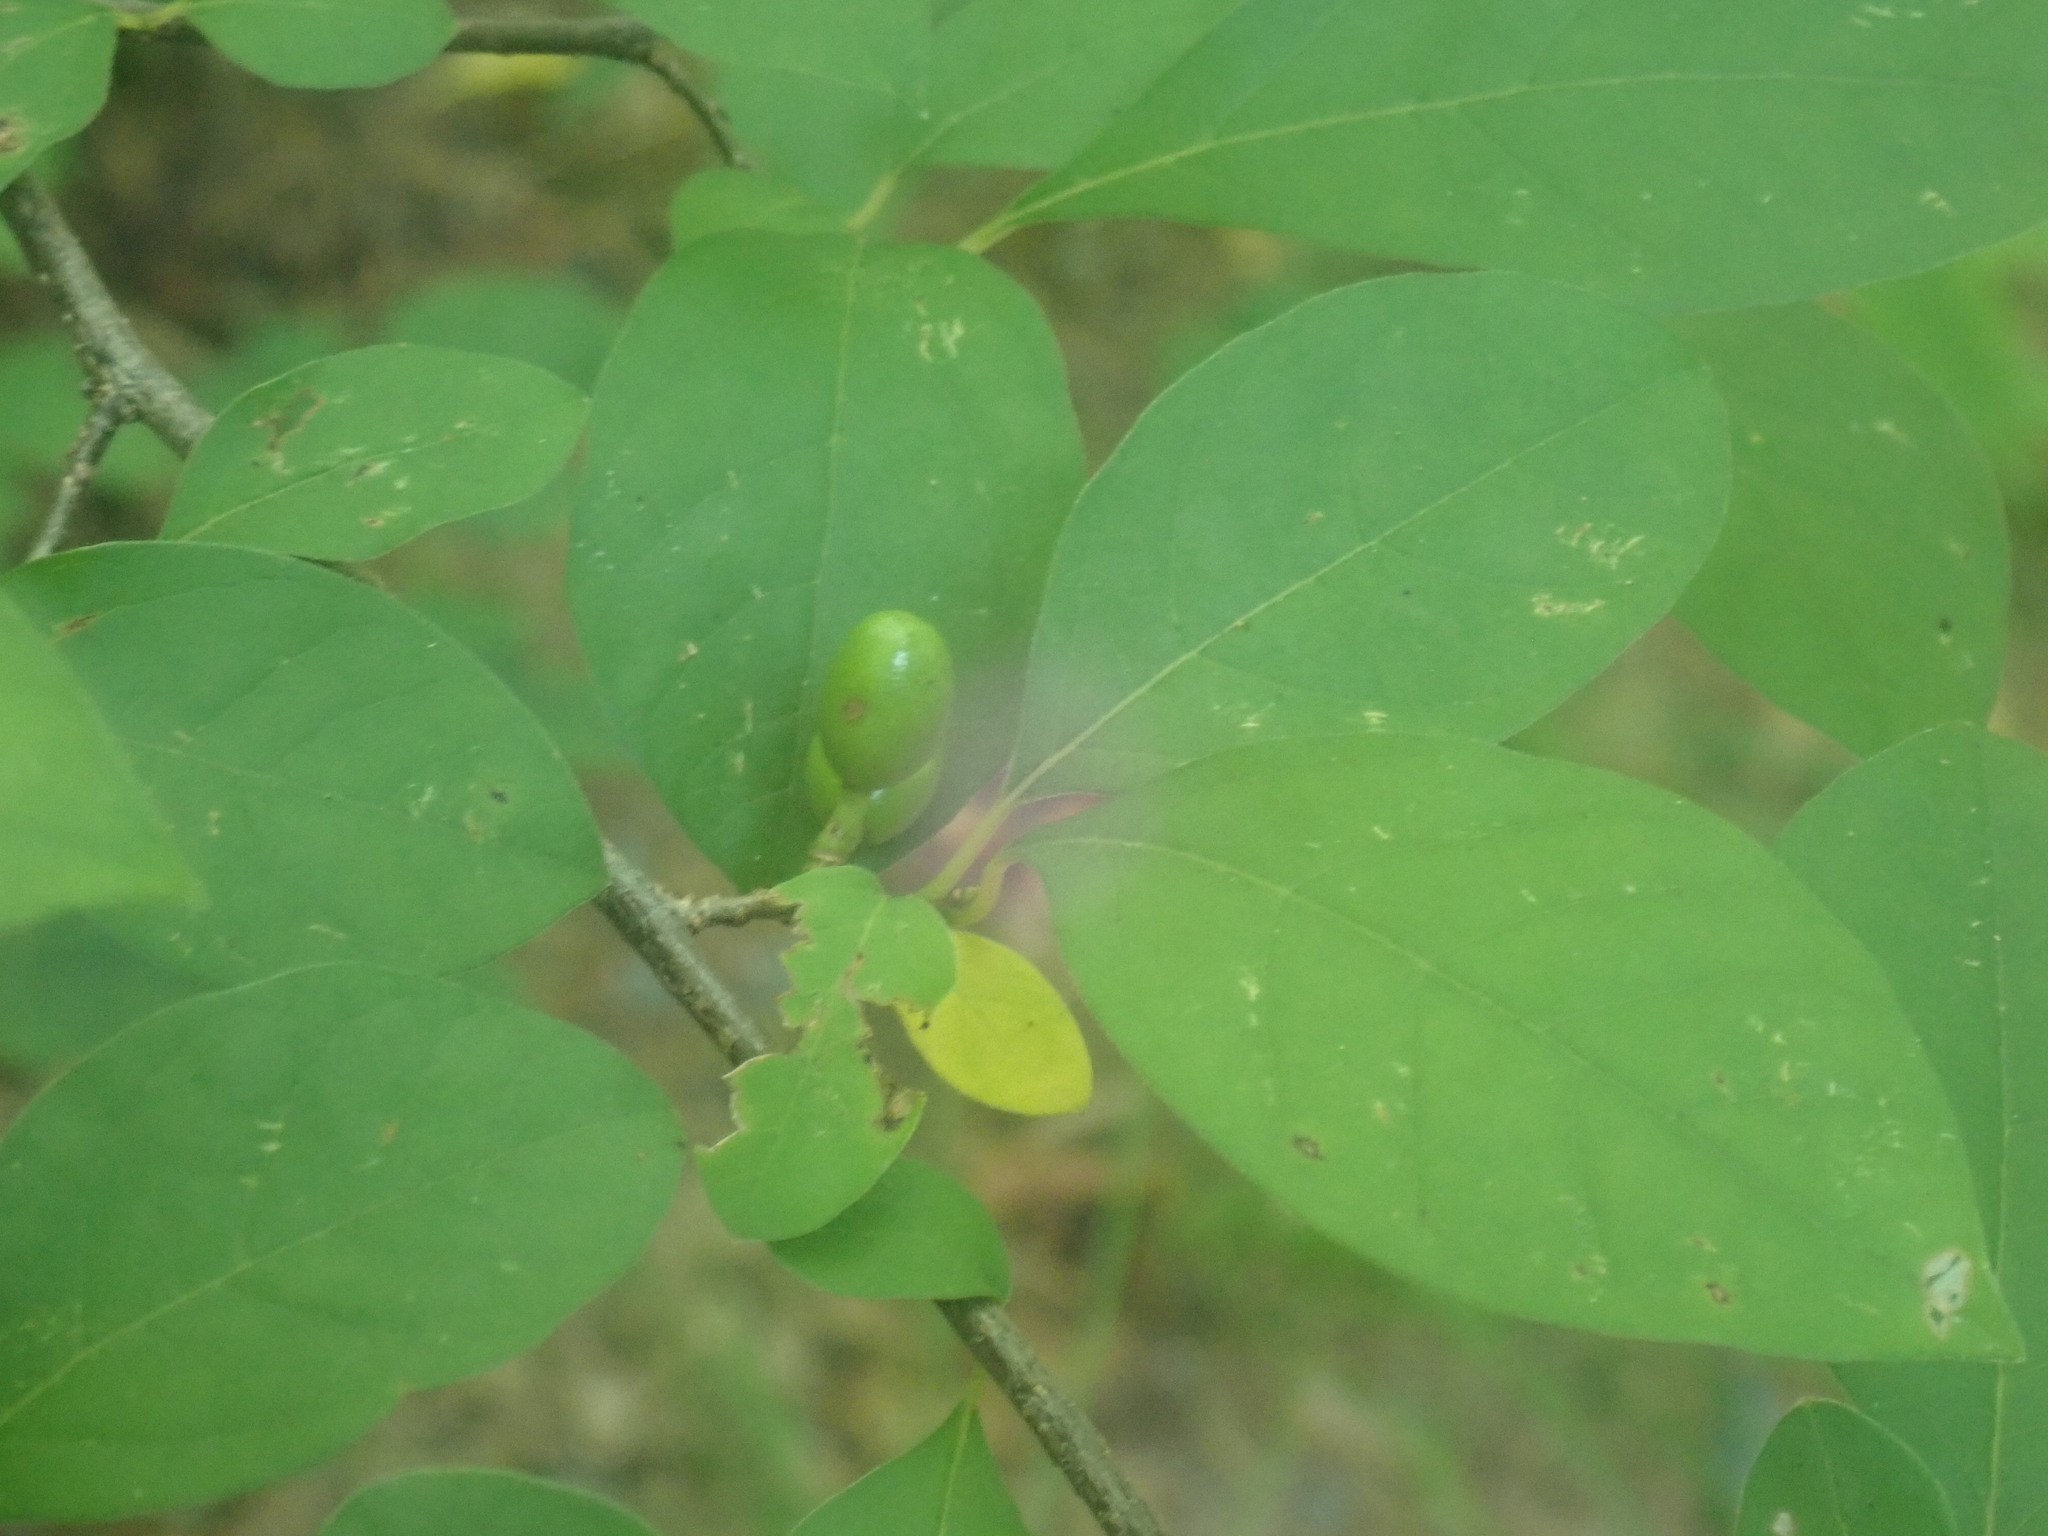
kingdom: Plantae
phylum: Tracheophyta
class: Magnoliopsida
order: Laurales
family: Lauraceae
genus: Lindera
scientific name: Lindera benzoin
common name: Spicebush
